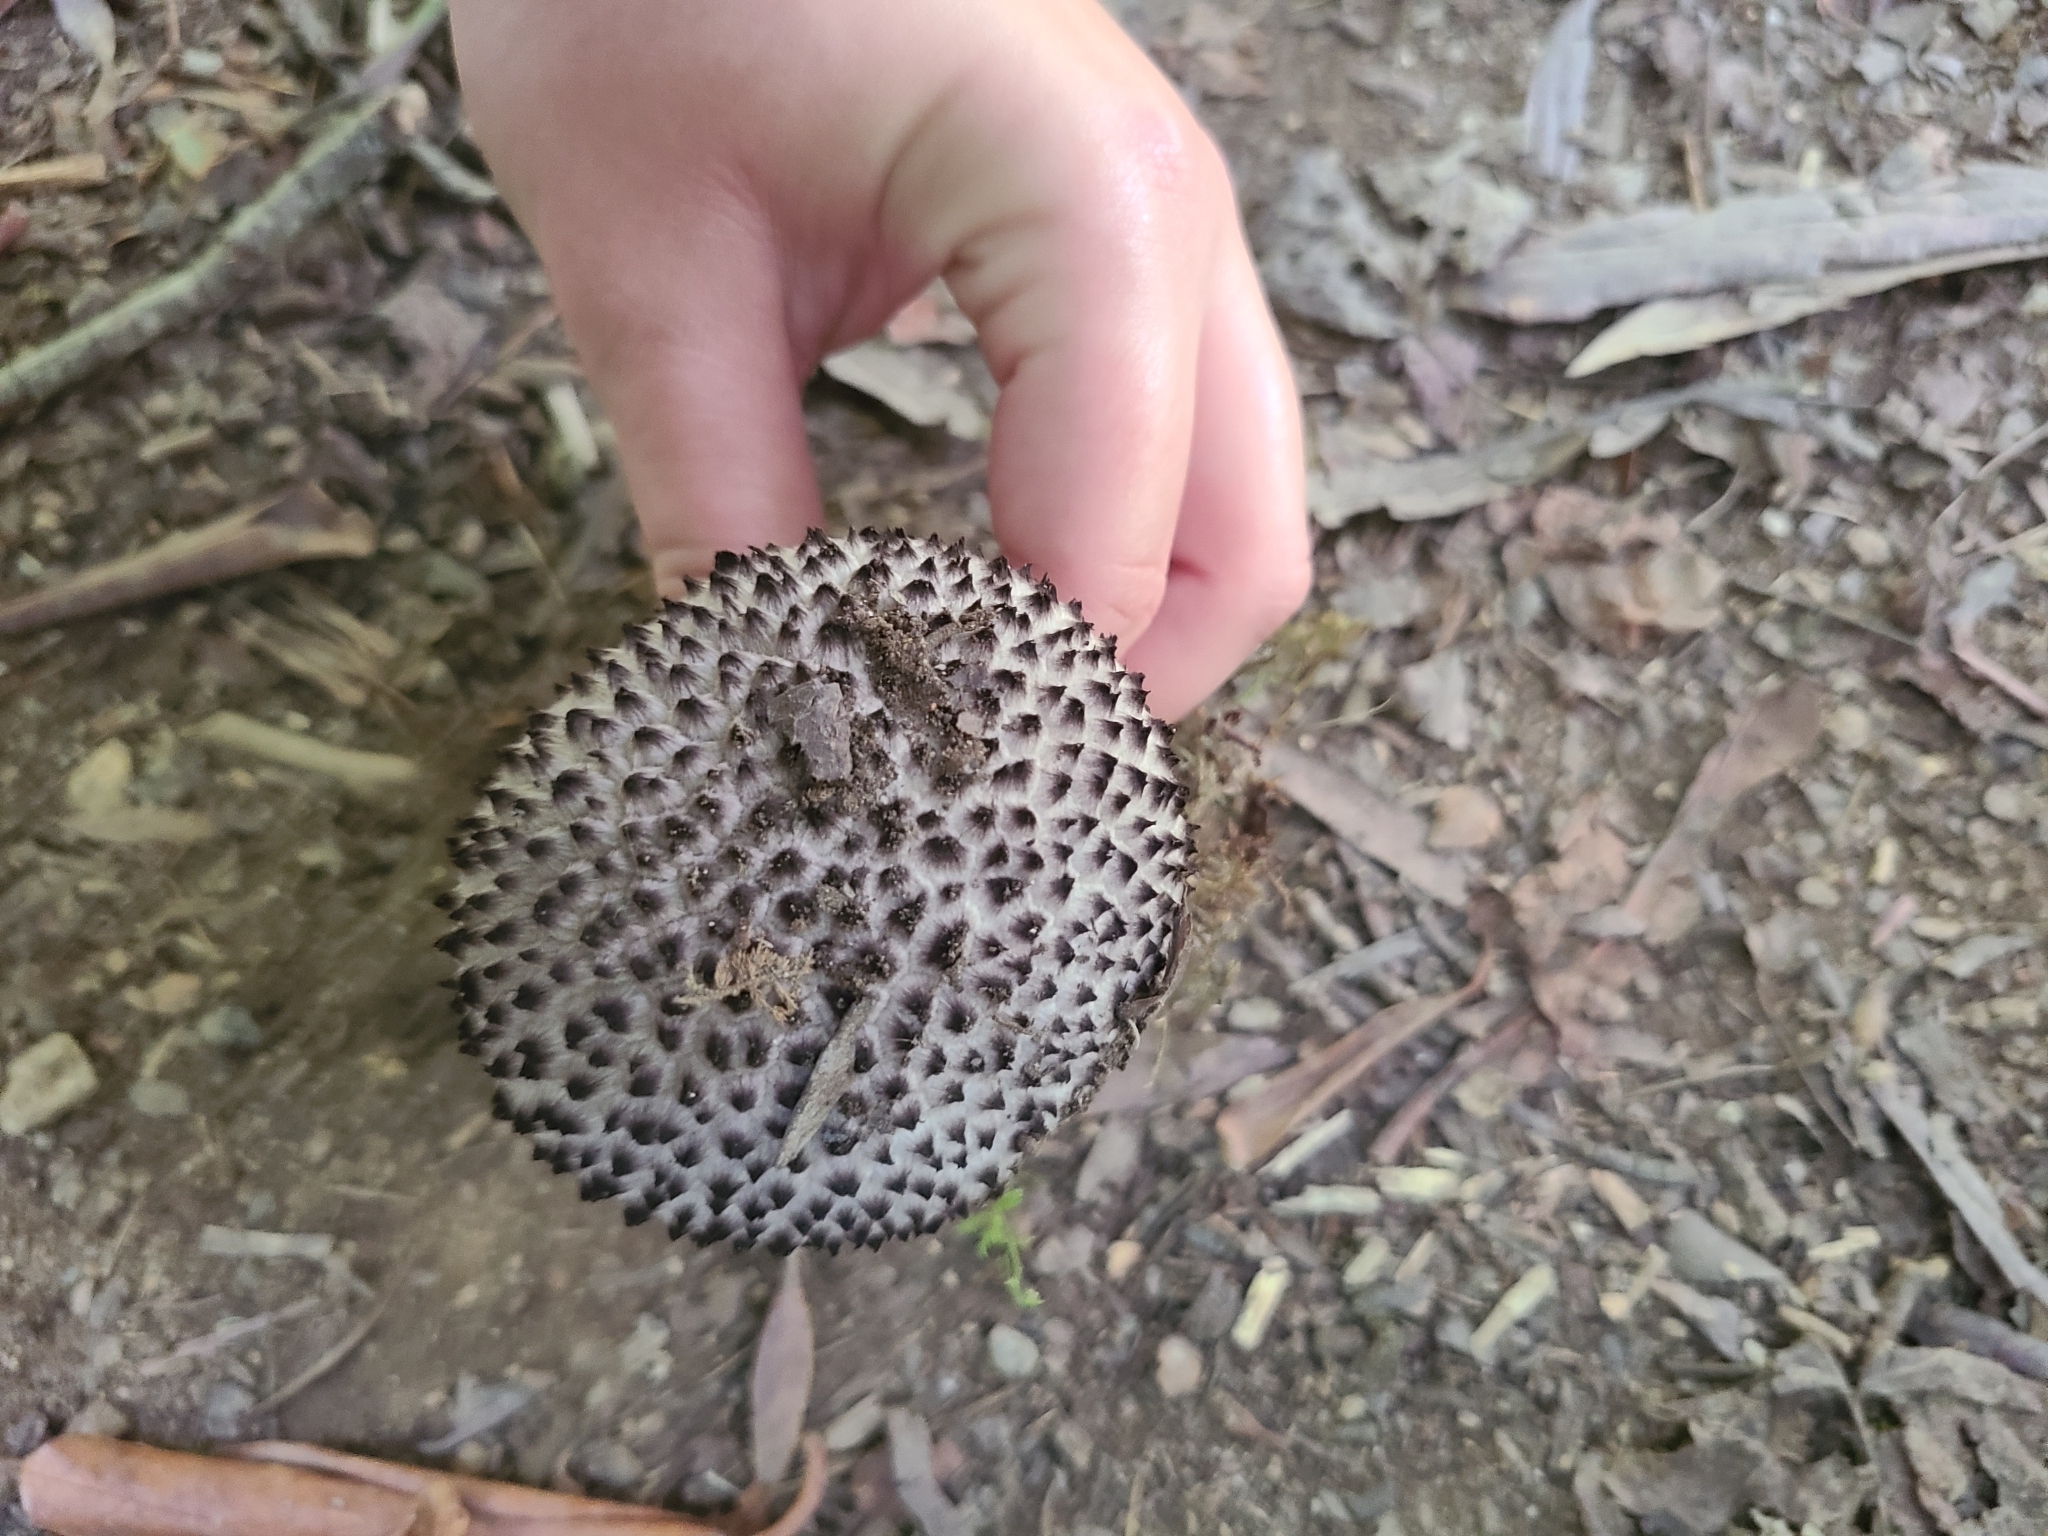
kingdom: Fungi
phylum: Basidiomycota
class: Agaricomycetes
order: Boletales
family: Boletaceae
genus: Strobilomyces
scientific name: Strobilomyces strobilaceus
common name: Old man of the woods
